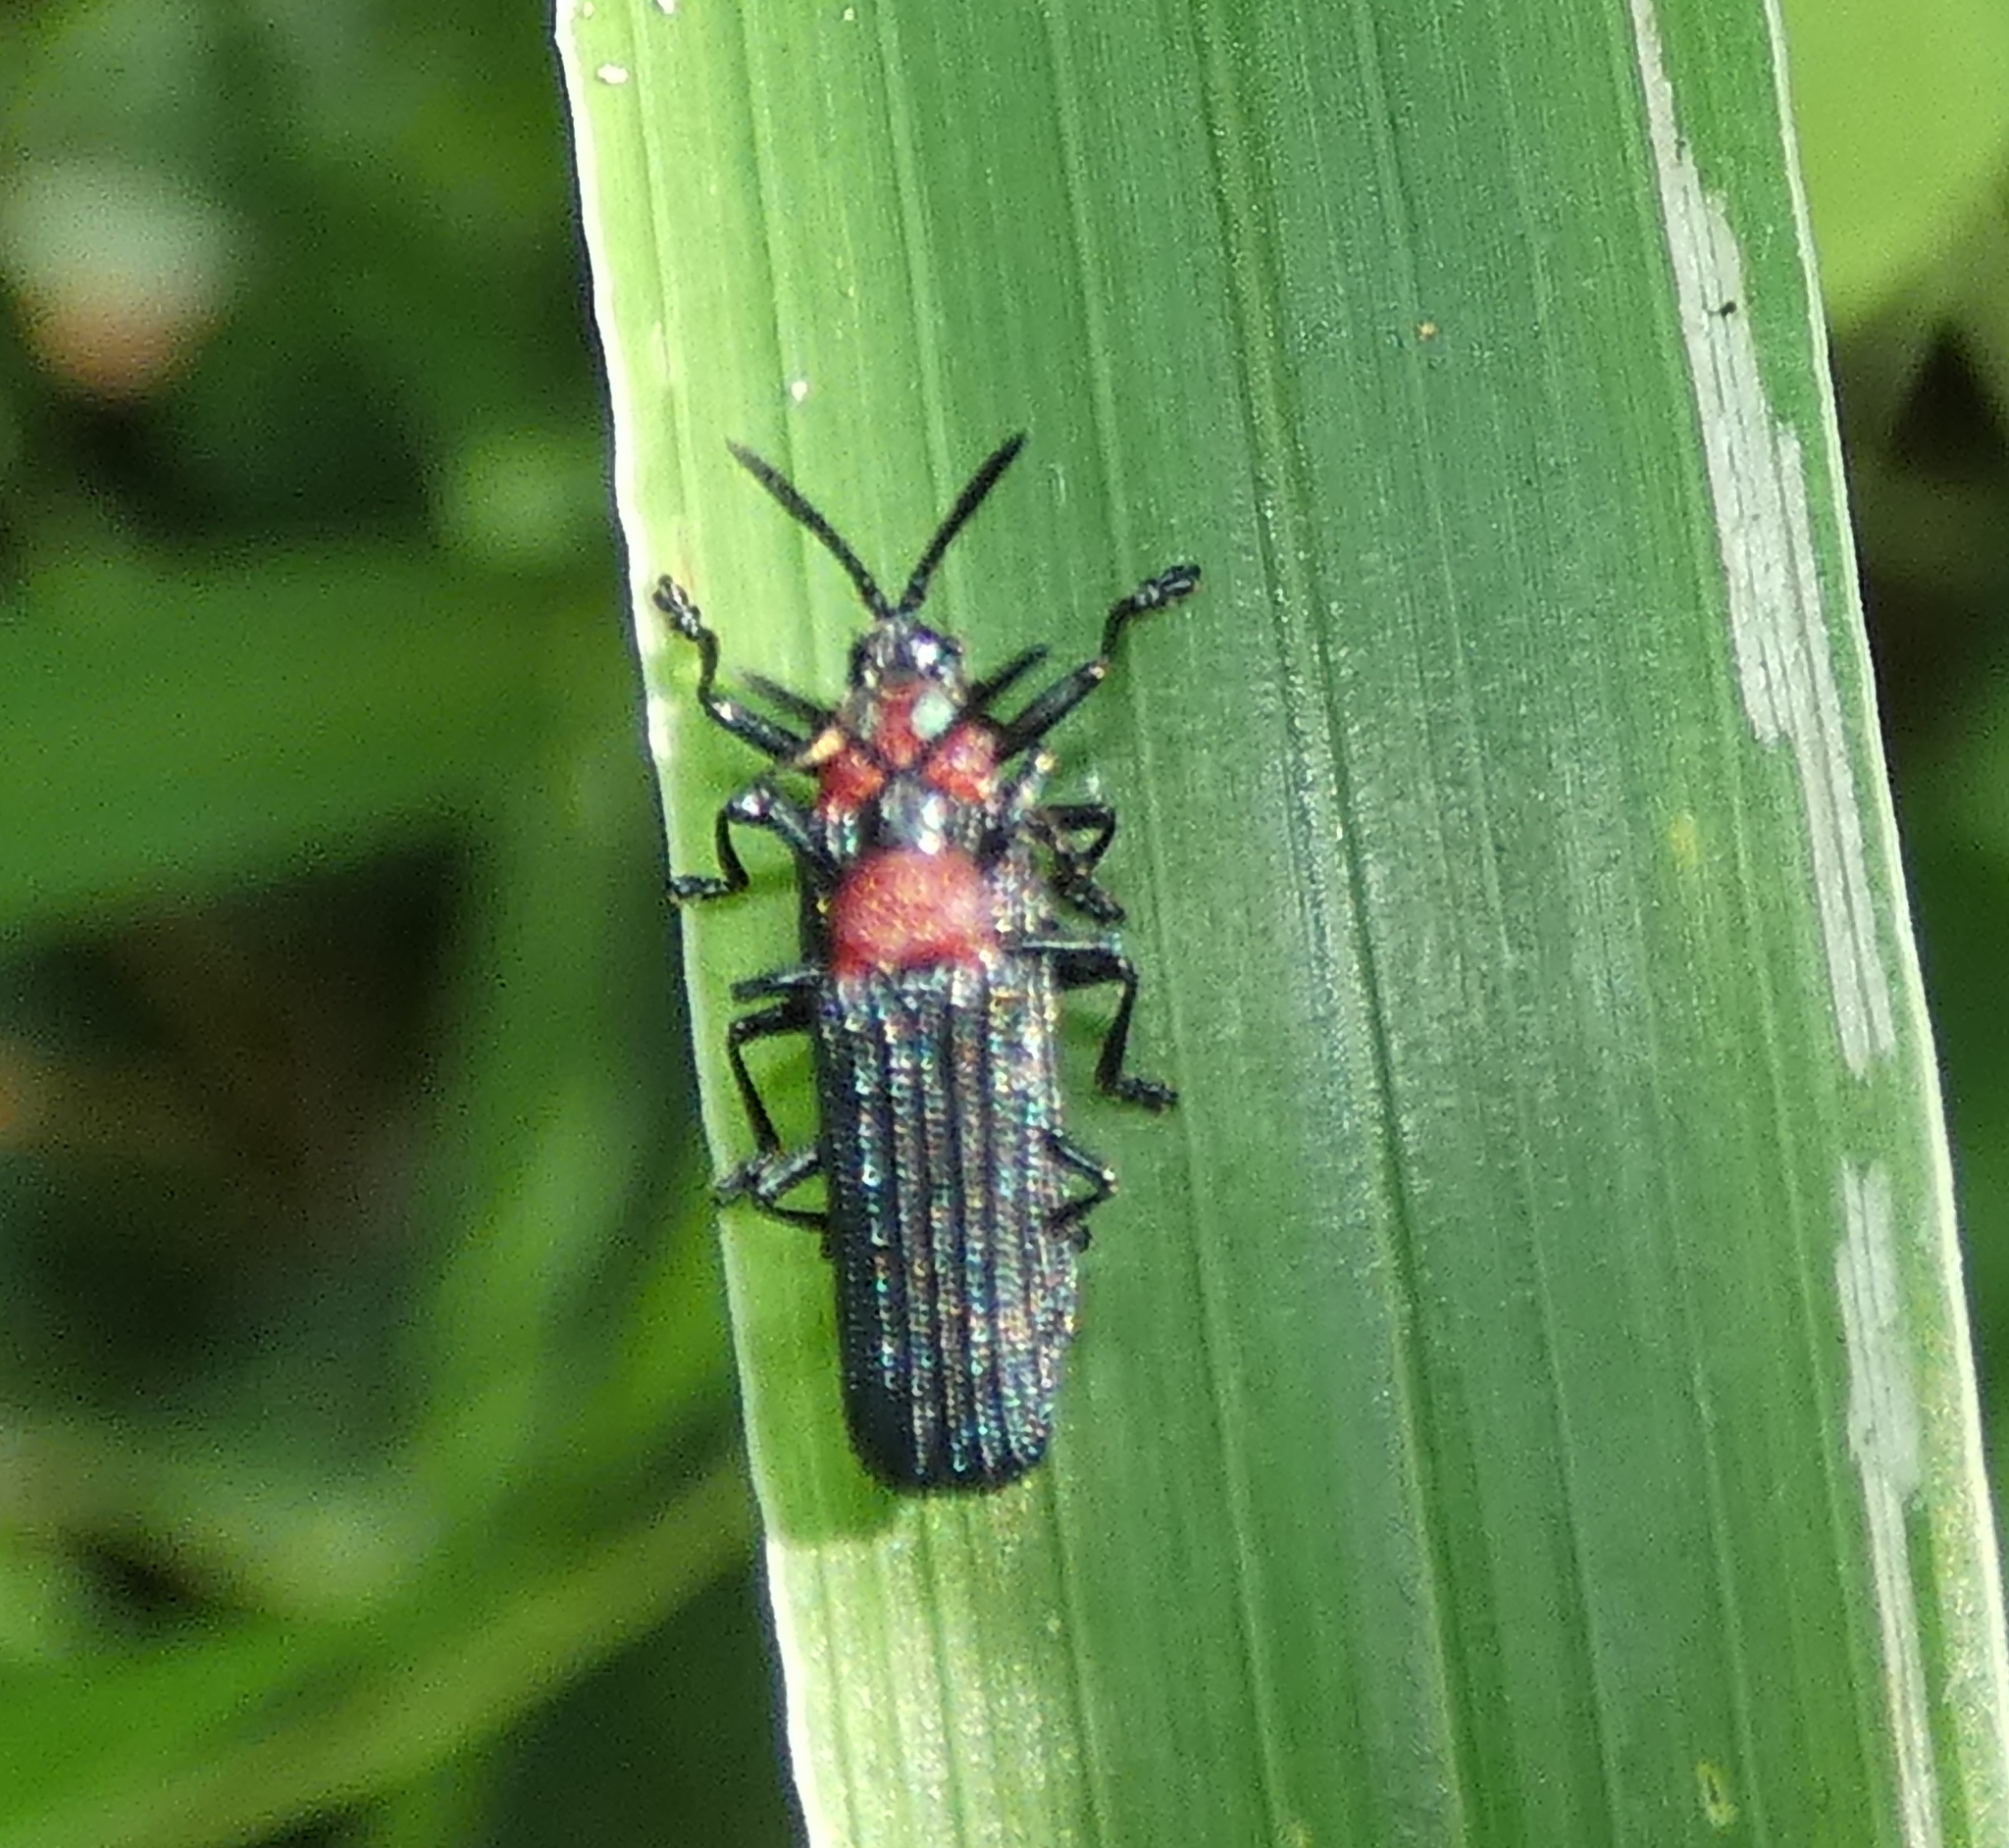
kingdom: Animalia
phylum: Arthropoda
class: Insecta
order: Coleoptera
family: Chrysomelidae
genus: Chalepus
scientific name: Chalepus notula
